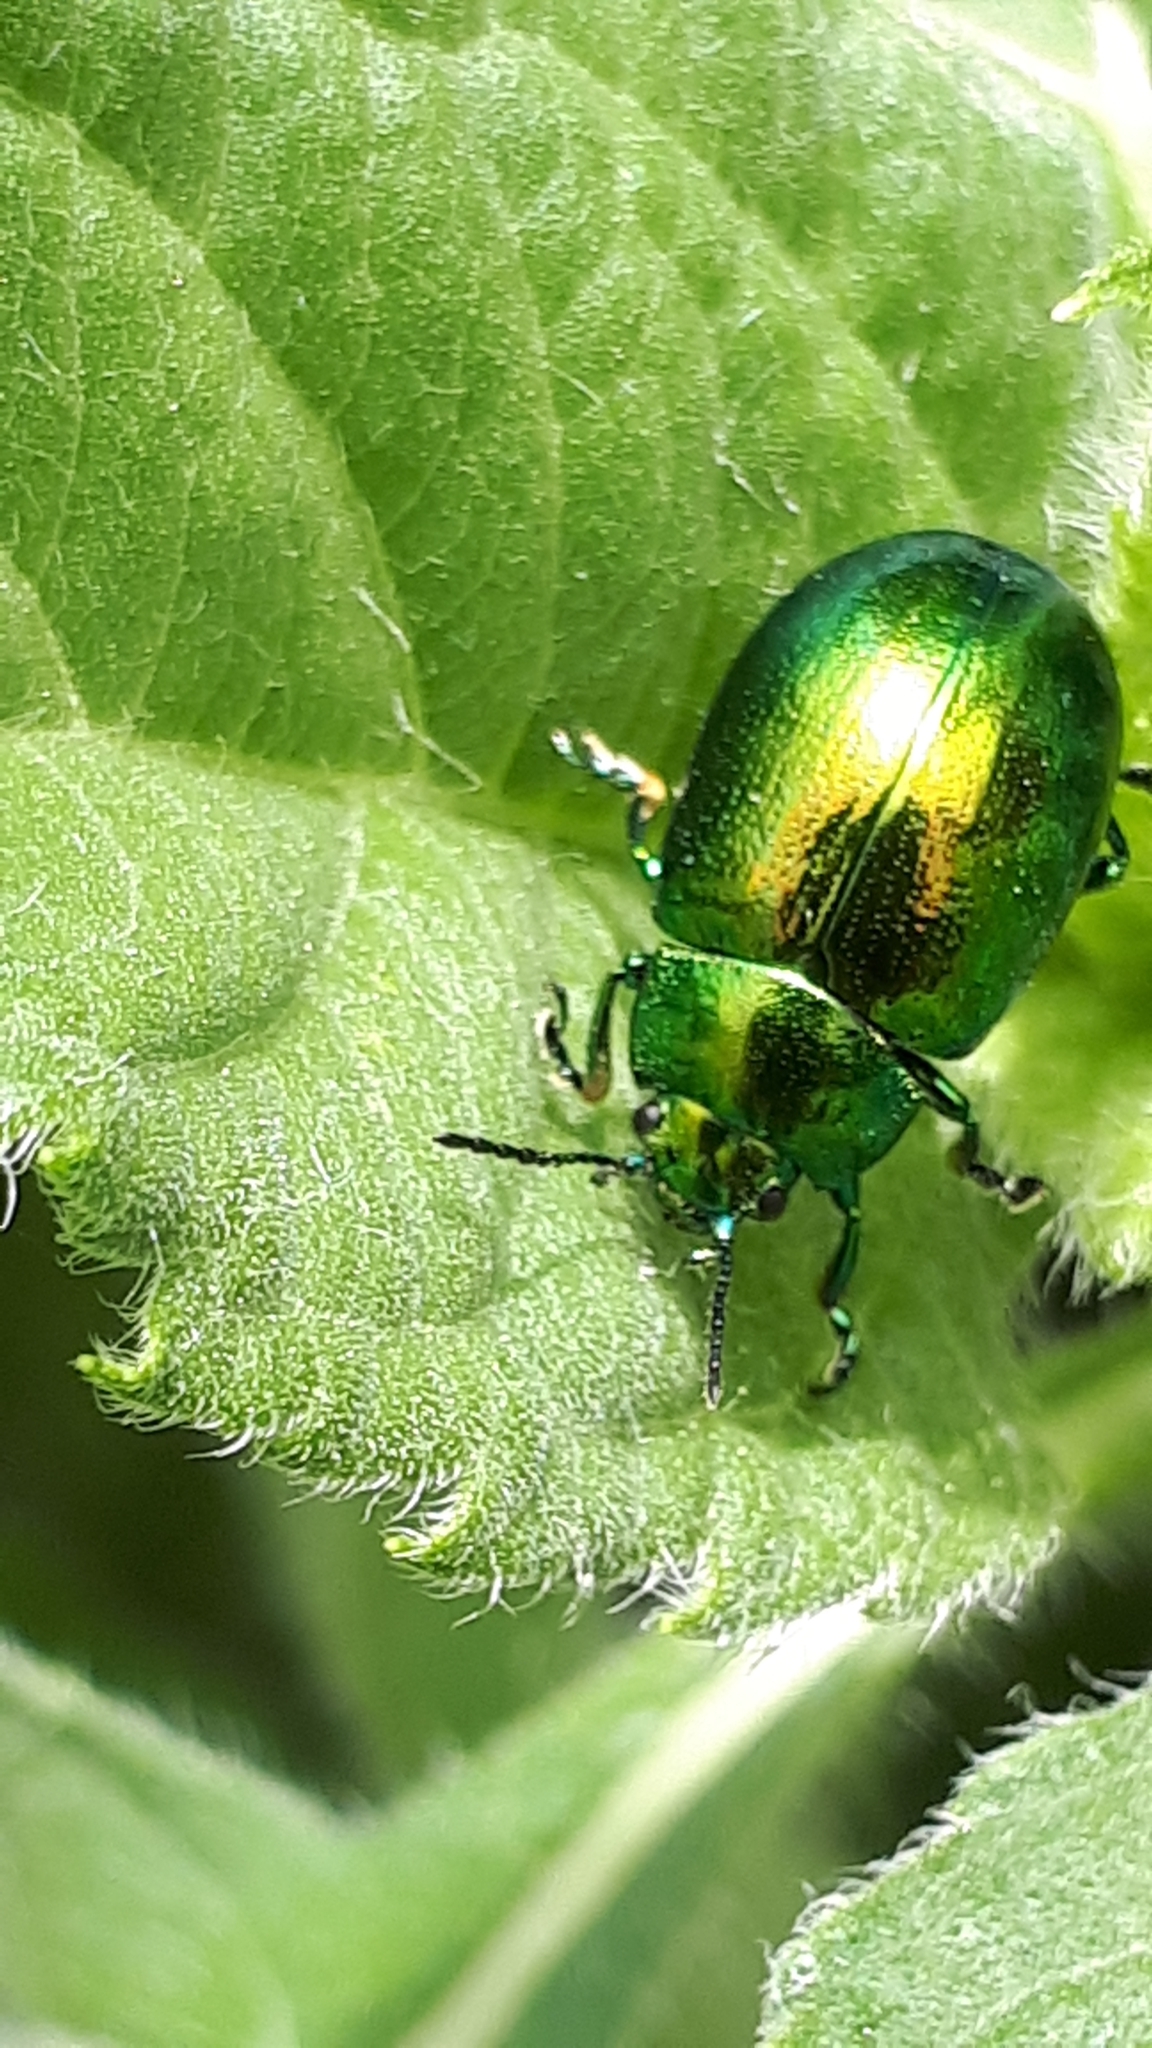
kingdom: Animalia
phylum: Arthropoda
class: Insecta
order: Coleoptera
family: Chrysomelidae
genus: Chrysolina
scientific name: Chrysolina herbacea
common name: Mint leaf beatle
